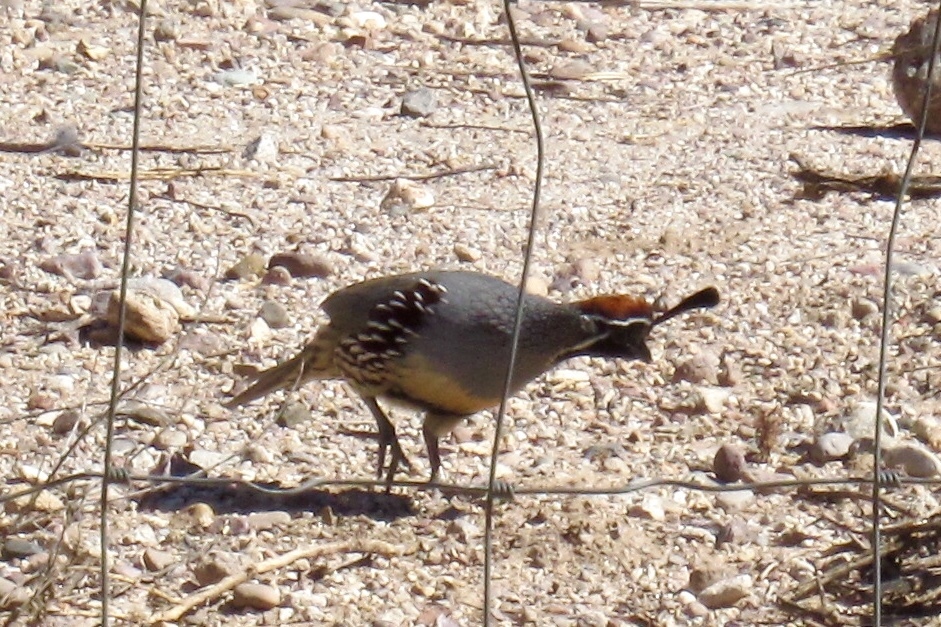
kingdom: Animalia
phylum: Chordata
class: Aves
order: Galliformes
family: Odontophoridae
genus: Callipepla
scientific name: Callipepla gambelii
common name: Gambel's quail
